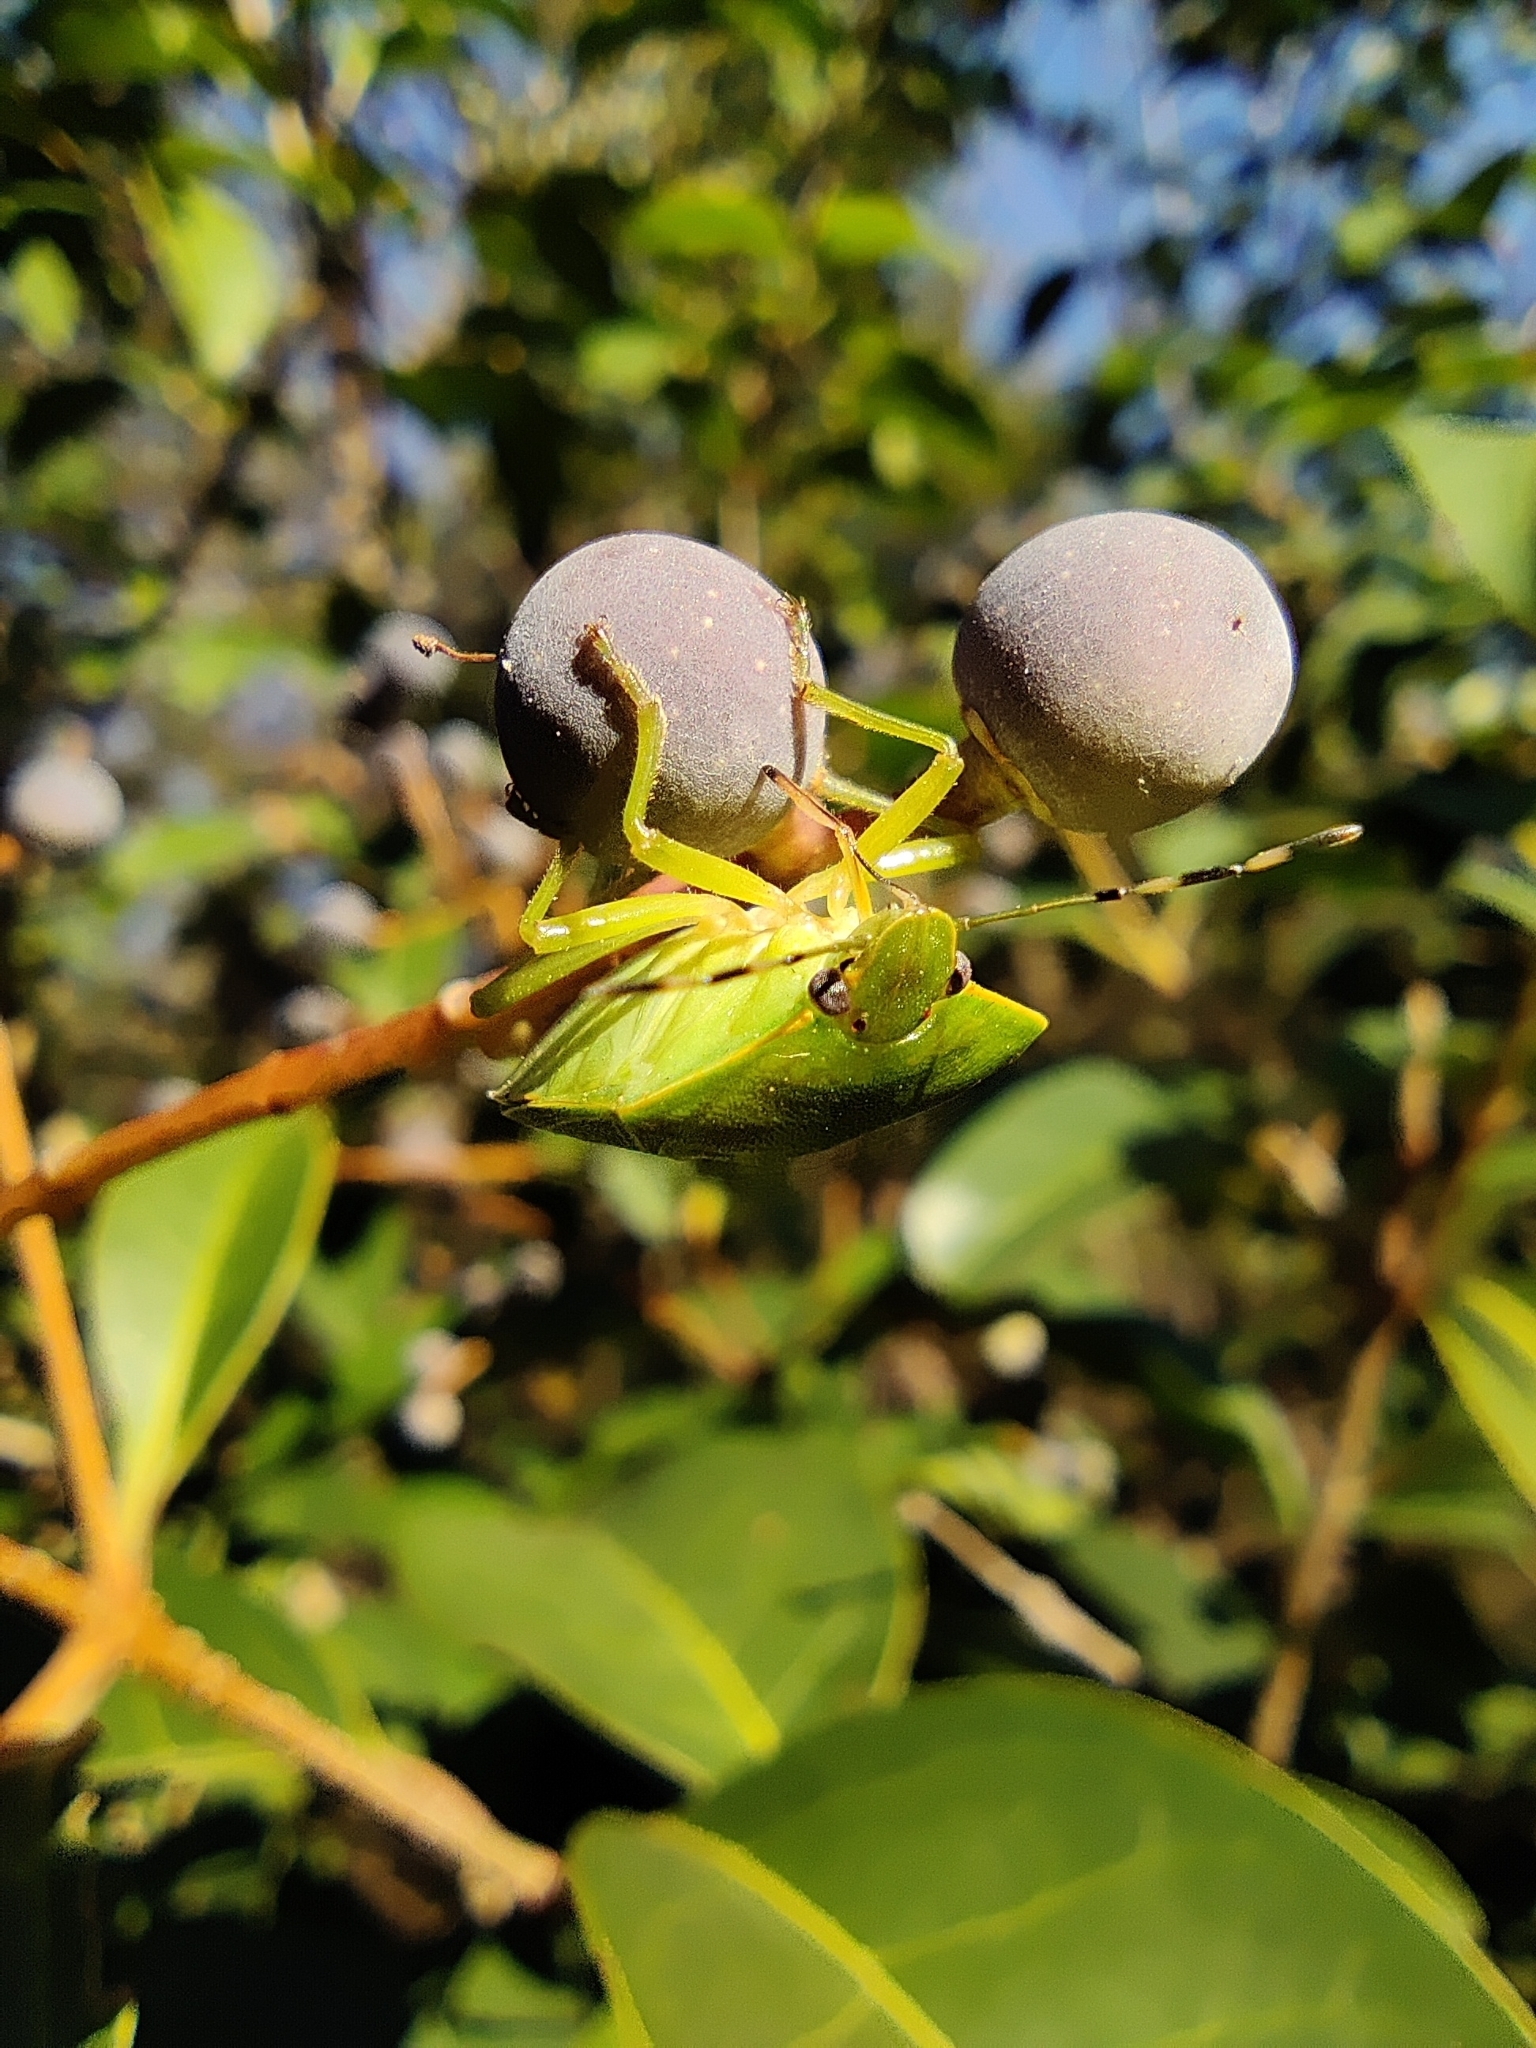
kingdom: Animalia
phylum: Arthropoda
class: Insecta
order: Hemiptera
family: Pentatomidae
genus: Chinavia
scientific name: Chinavia hilaris
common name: Green stink bug
